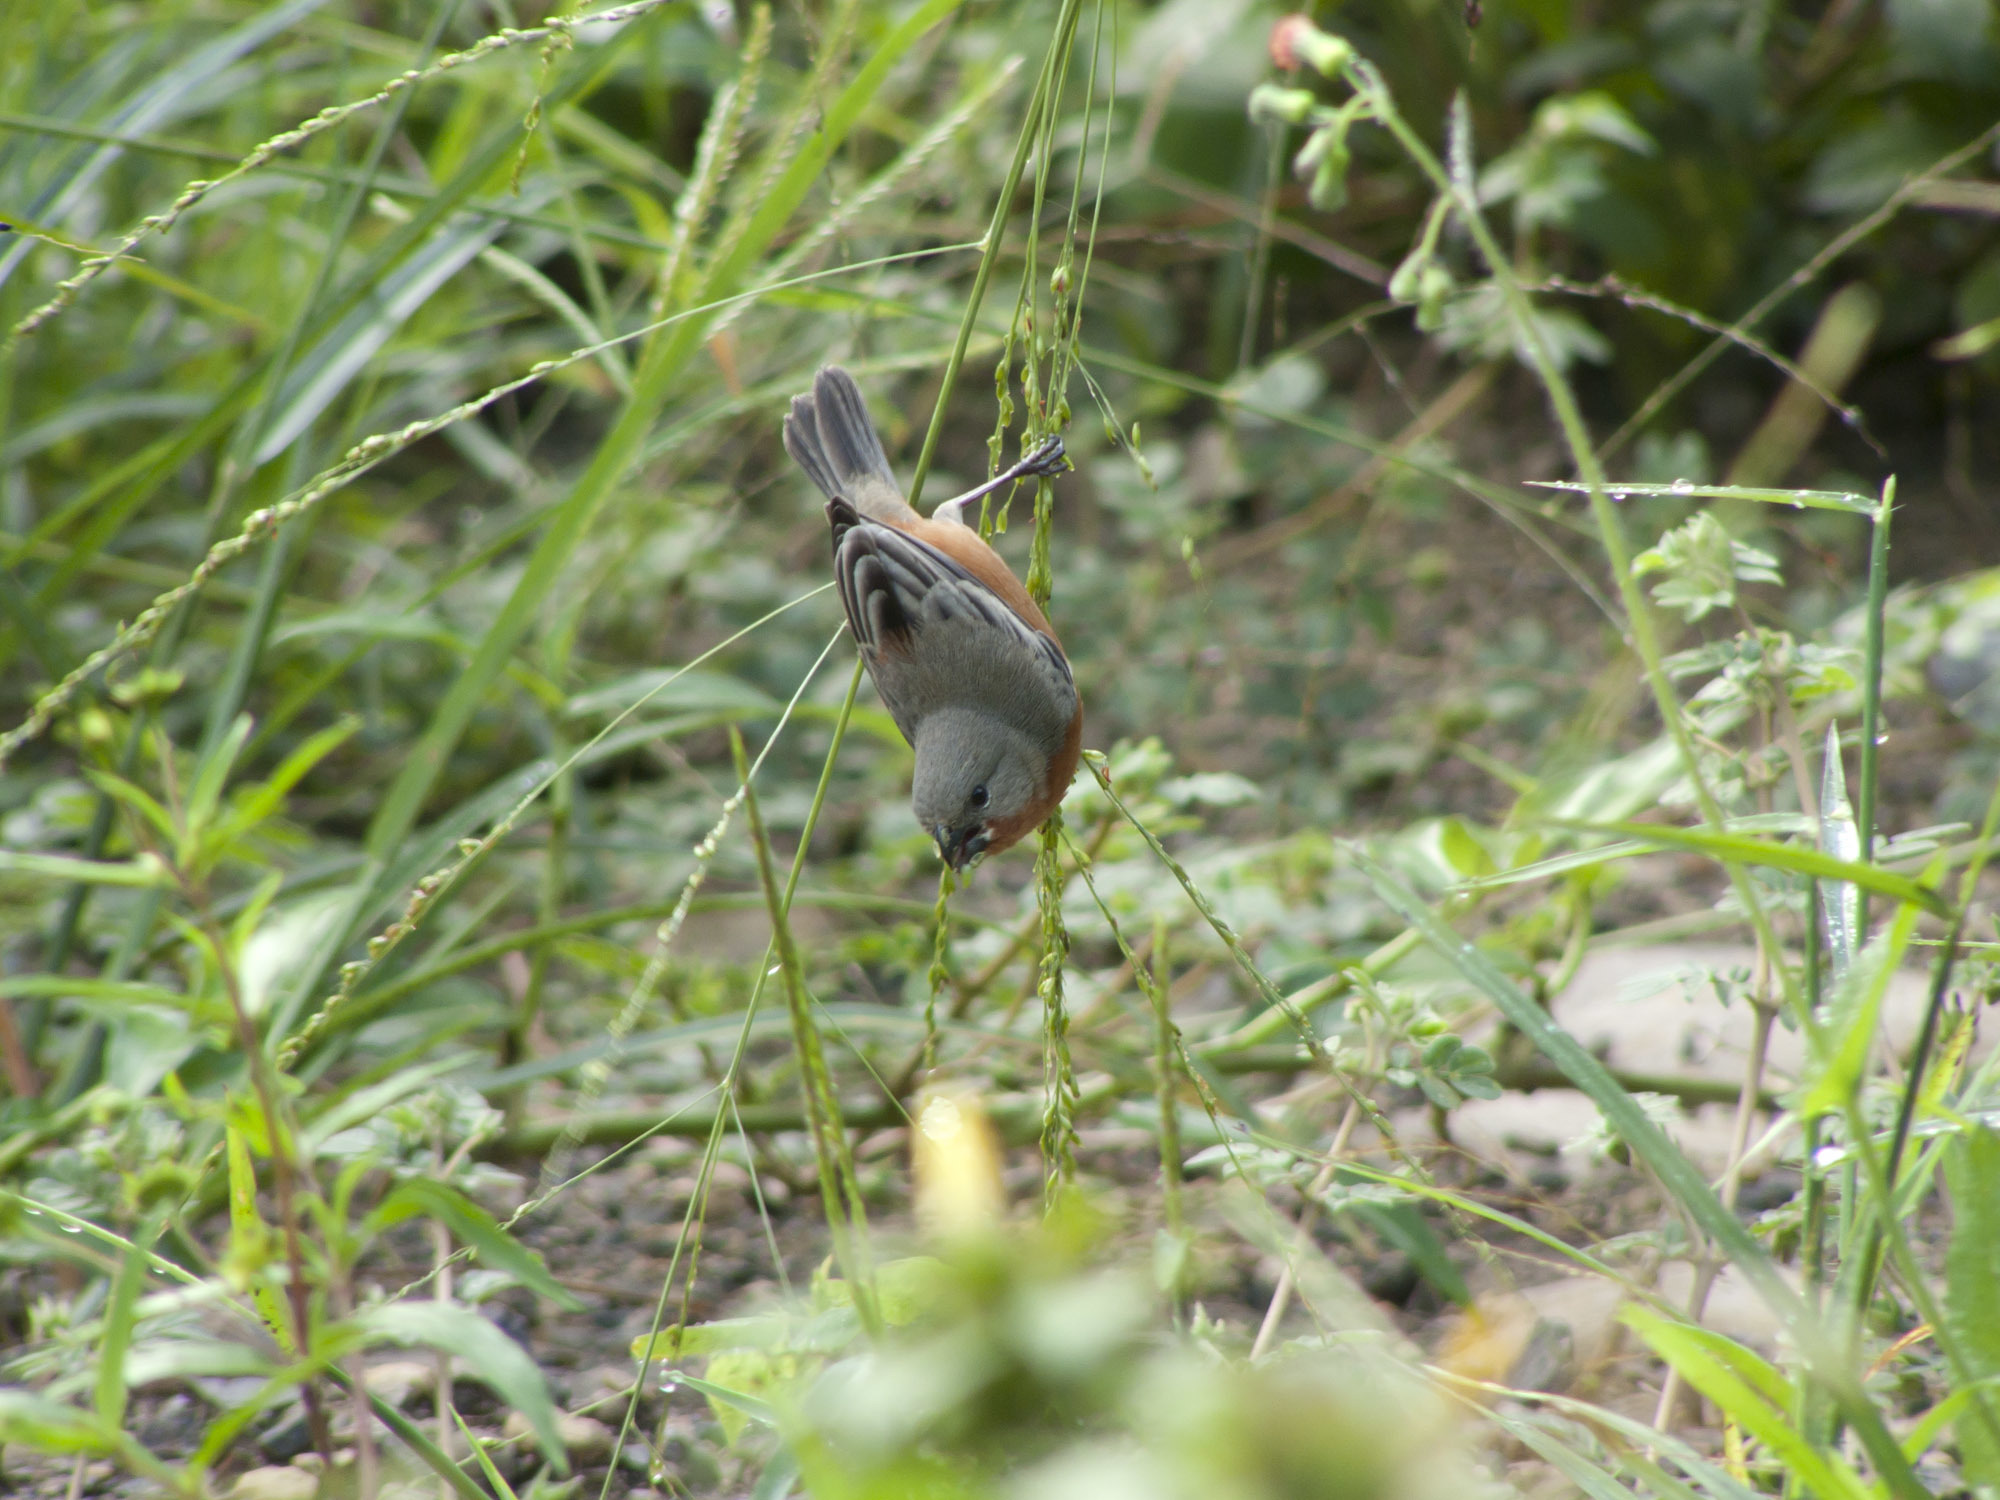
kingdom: Animalia
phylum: Chordata
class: Aves
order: Passeriformes
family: Thraupidae
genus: Sporophila
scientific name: Sporophila minuta
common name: Ruddy-breasted seedeater
